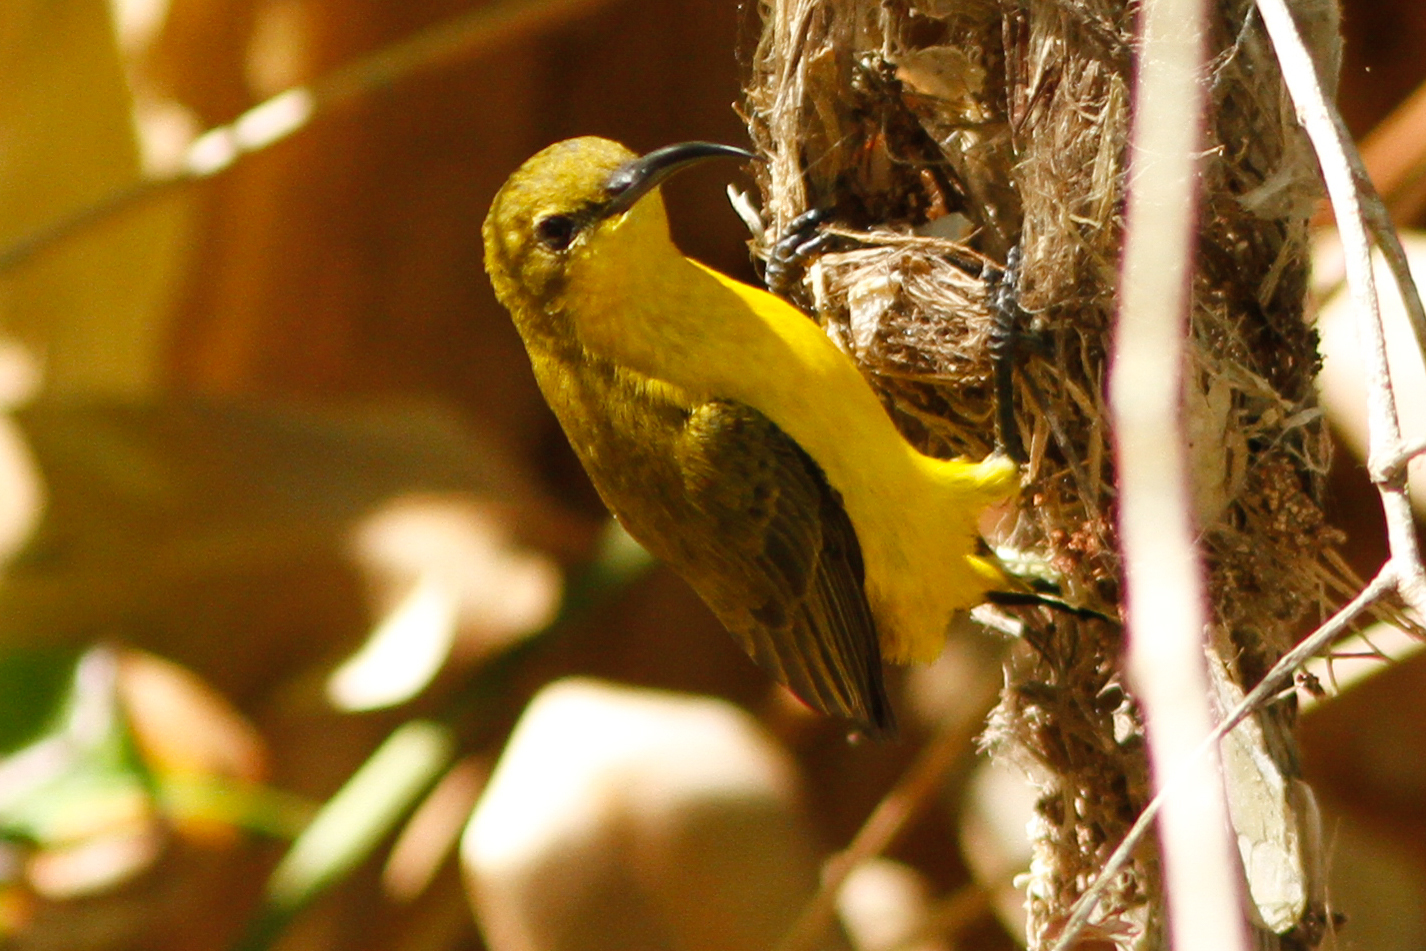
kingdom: Animalia
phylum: Chordata
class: Aves
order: Passeriformes
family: Nectariniidae
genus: Cinnyris
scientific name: Cinnyris
